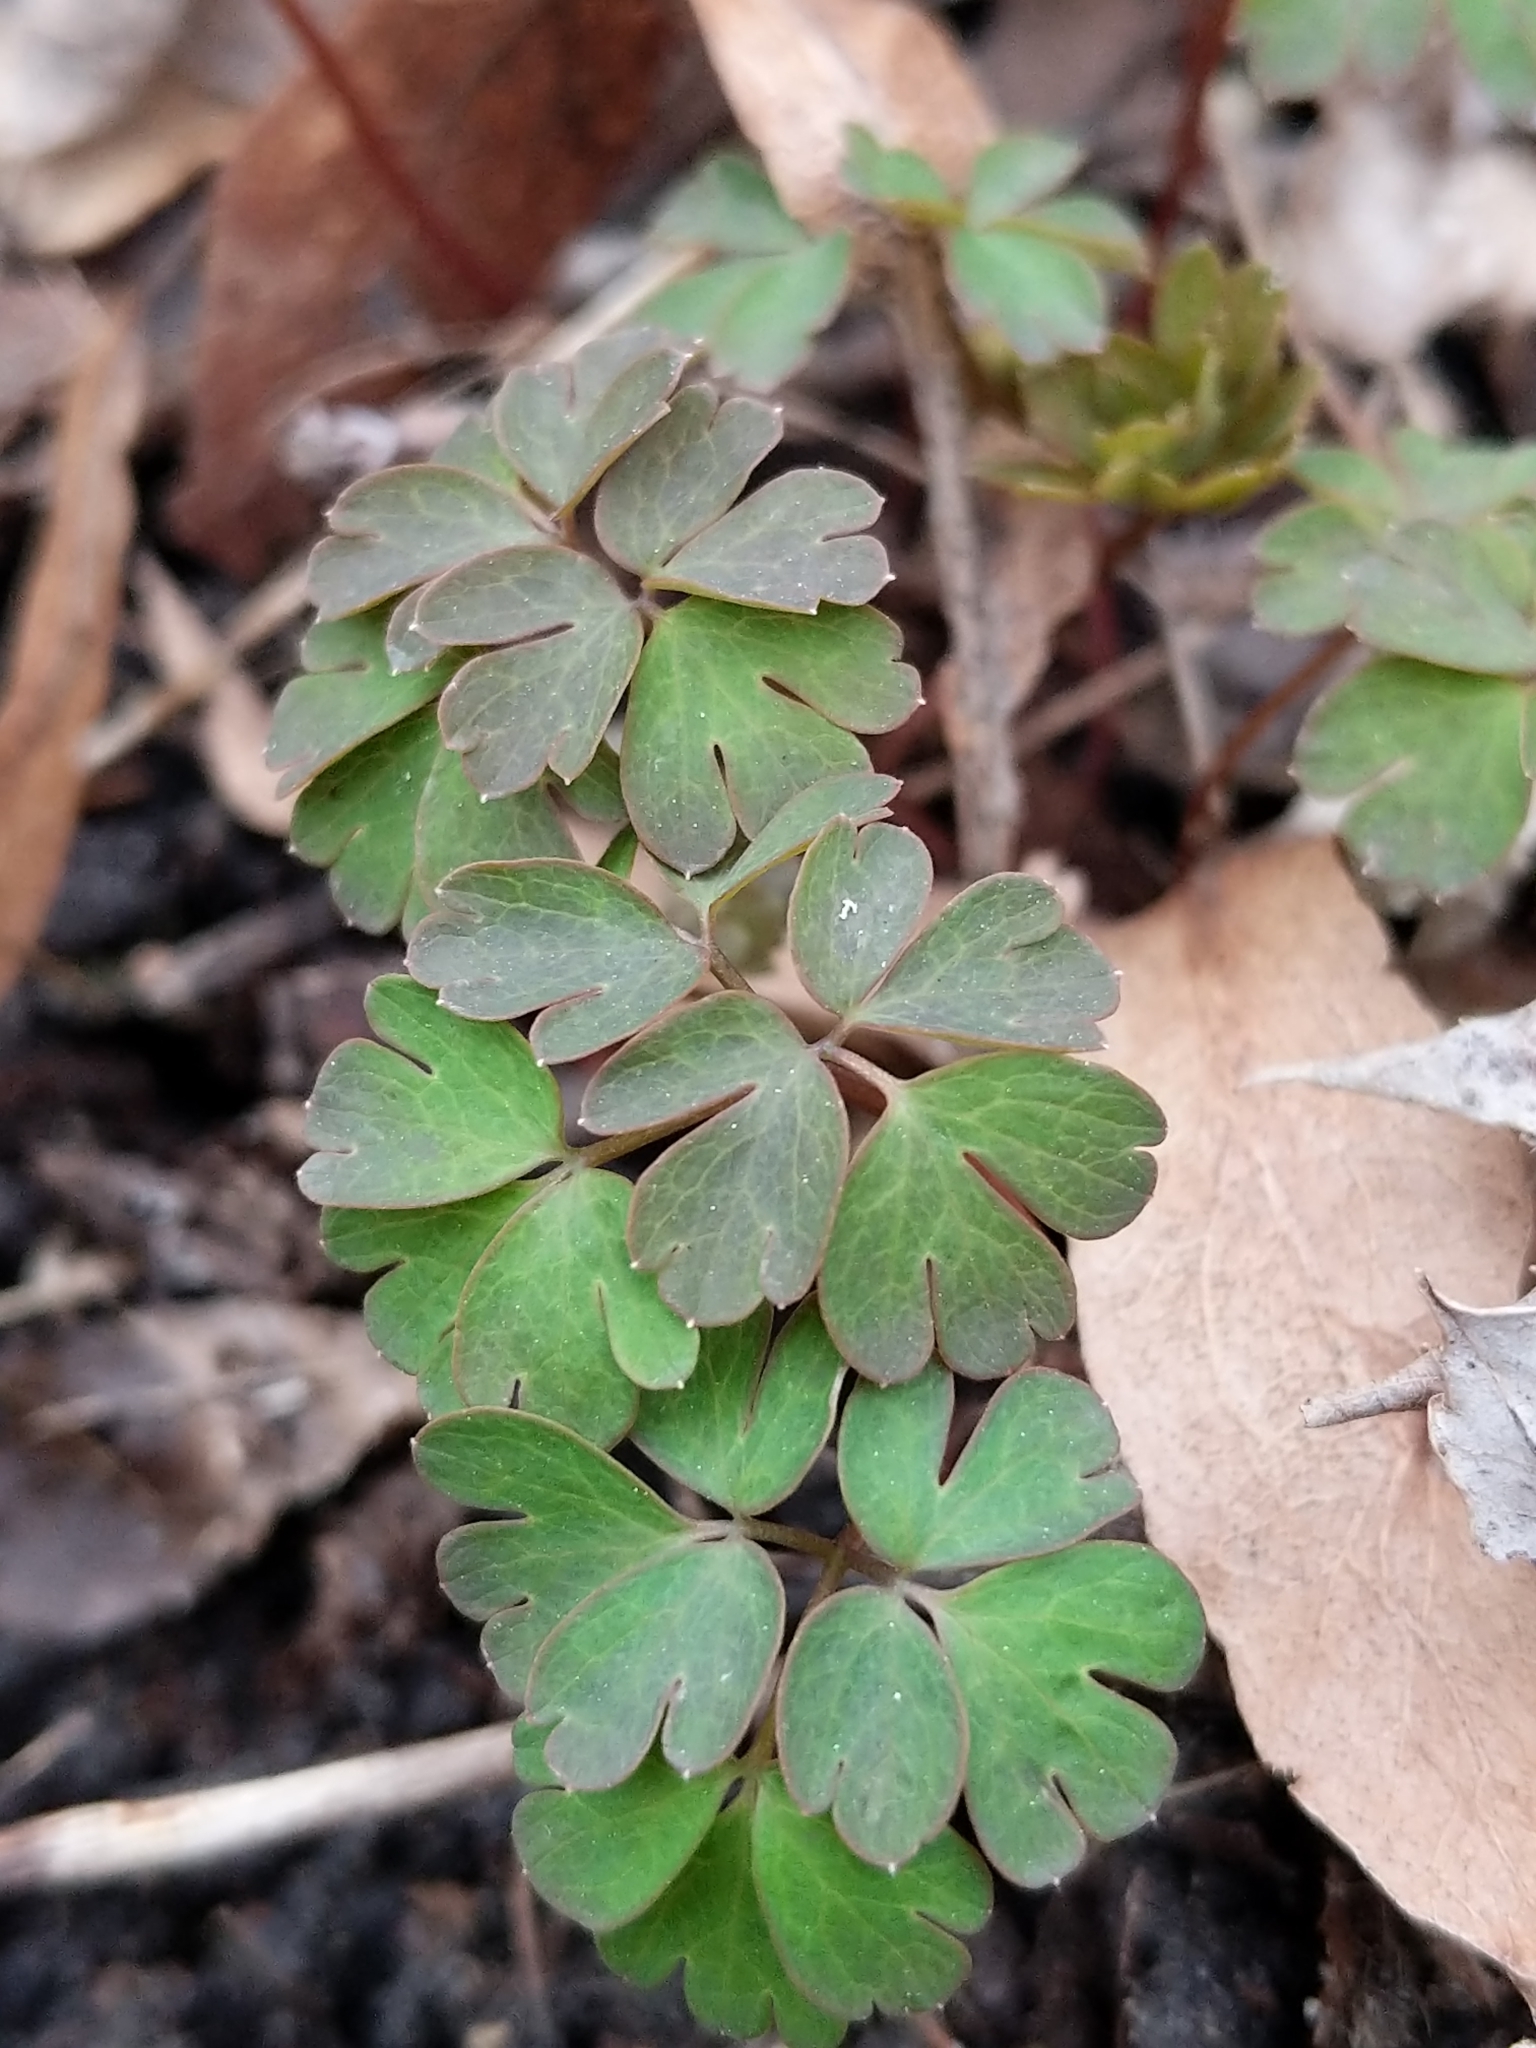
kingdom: Plantae
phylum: Tracheophyta
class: Magnoliopsida
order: Ranunculales
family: Ranunculaceae
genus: Enemion
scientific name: Enemion biternatum
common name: Eastern false rue-anemone
